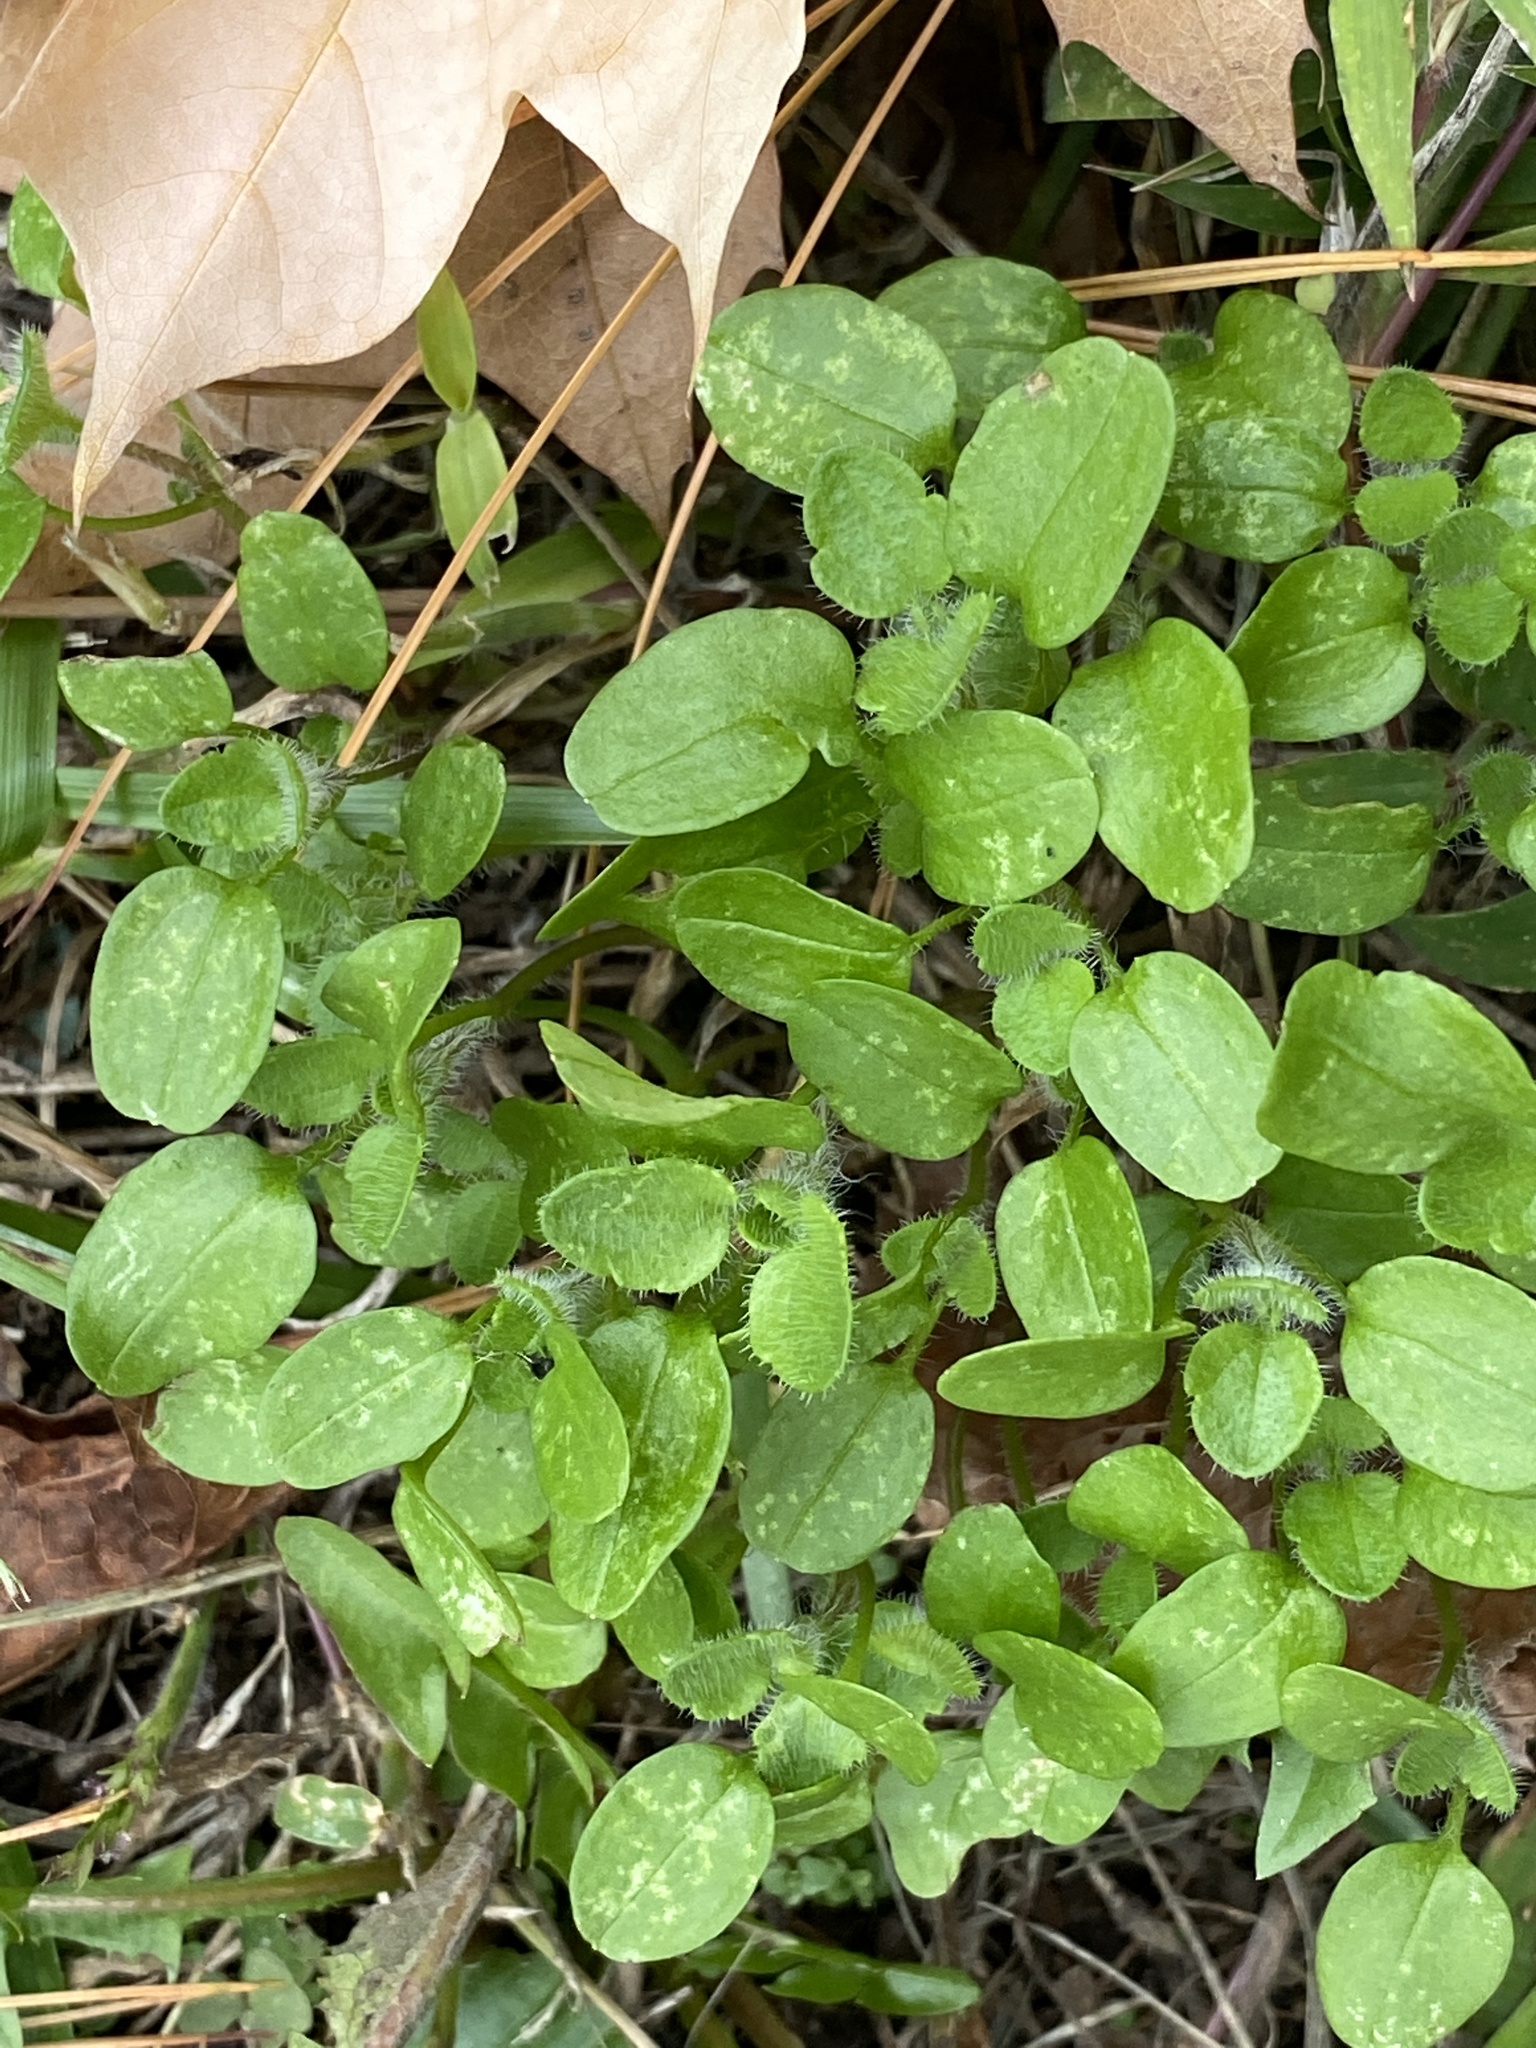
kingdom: Plantae
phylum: Tracheophyta
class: Magnoliopsida
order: Lamiales
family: Plantaginaceae
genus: Veronica
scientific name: Veronica hederifolia
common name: Ivy-leaved speedwell
